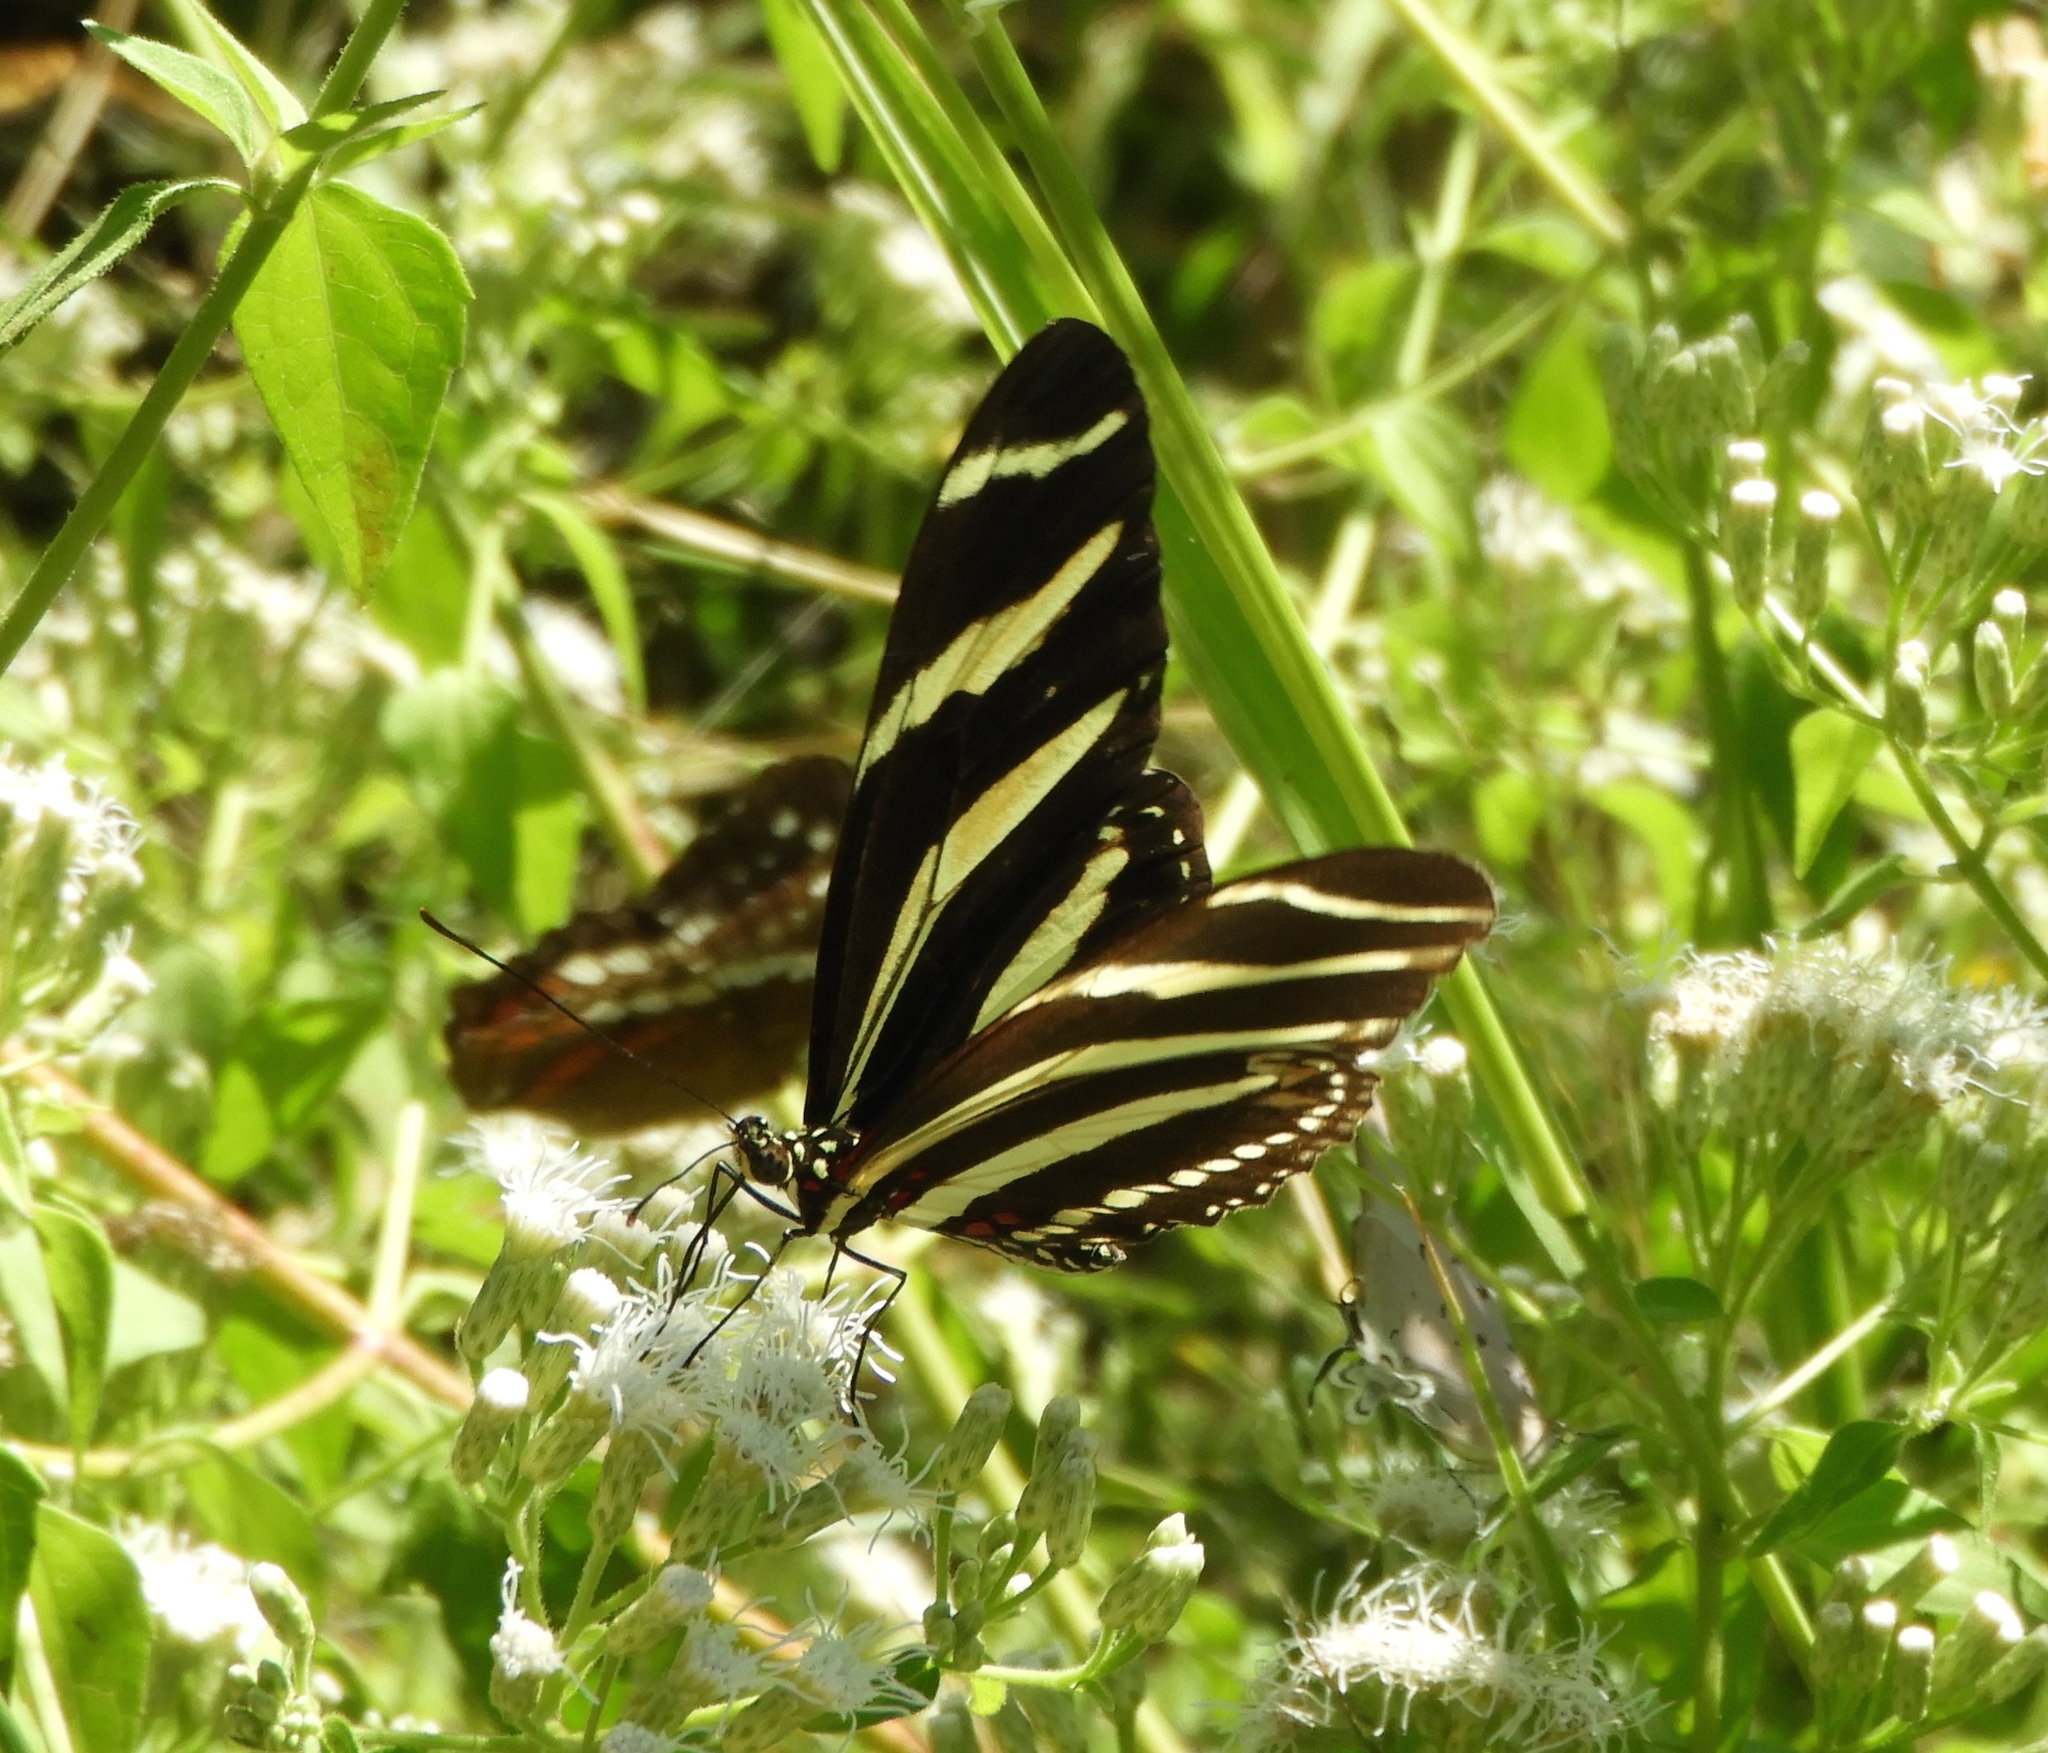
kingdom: Animalia
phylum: Arthropoda
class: Insecta
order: Lepidoptera
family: Nymphalidae
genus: Heliconius
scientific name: Heliconius charithonia
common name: Zebra long wing
